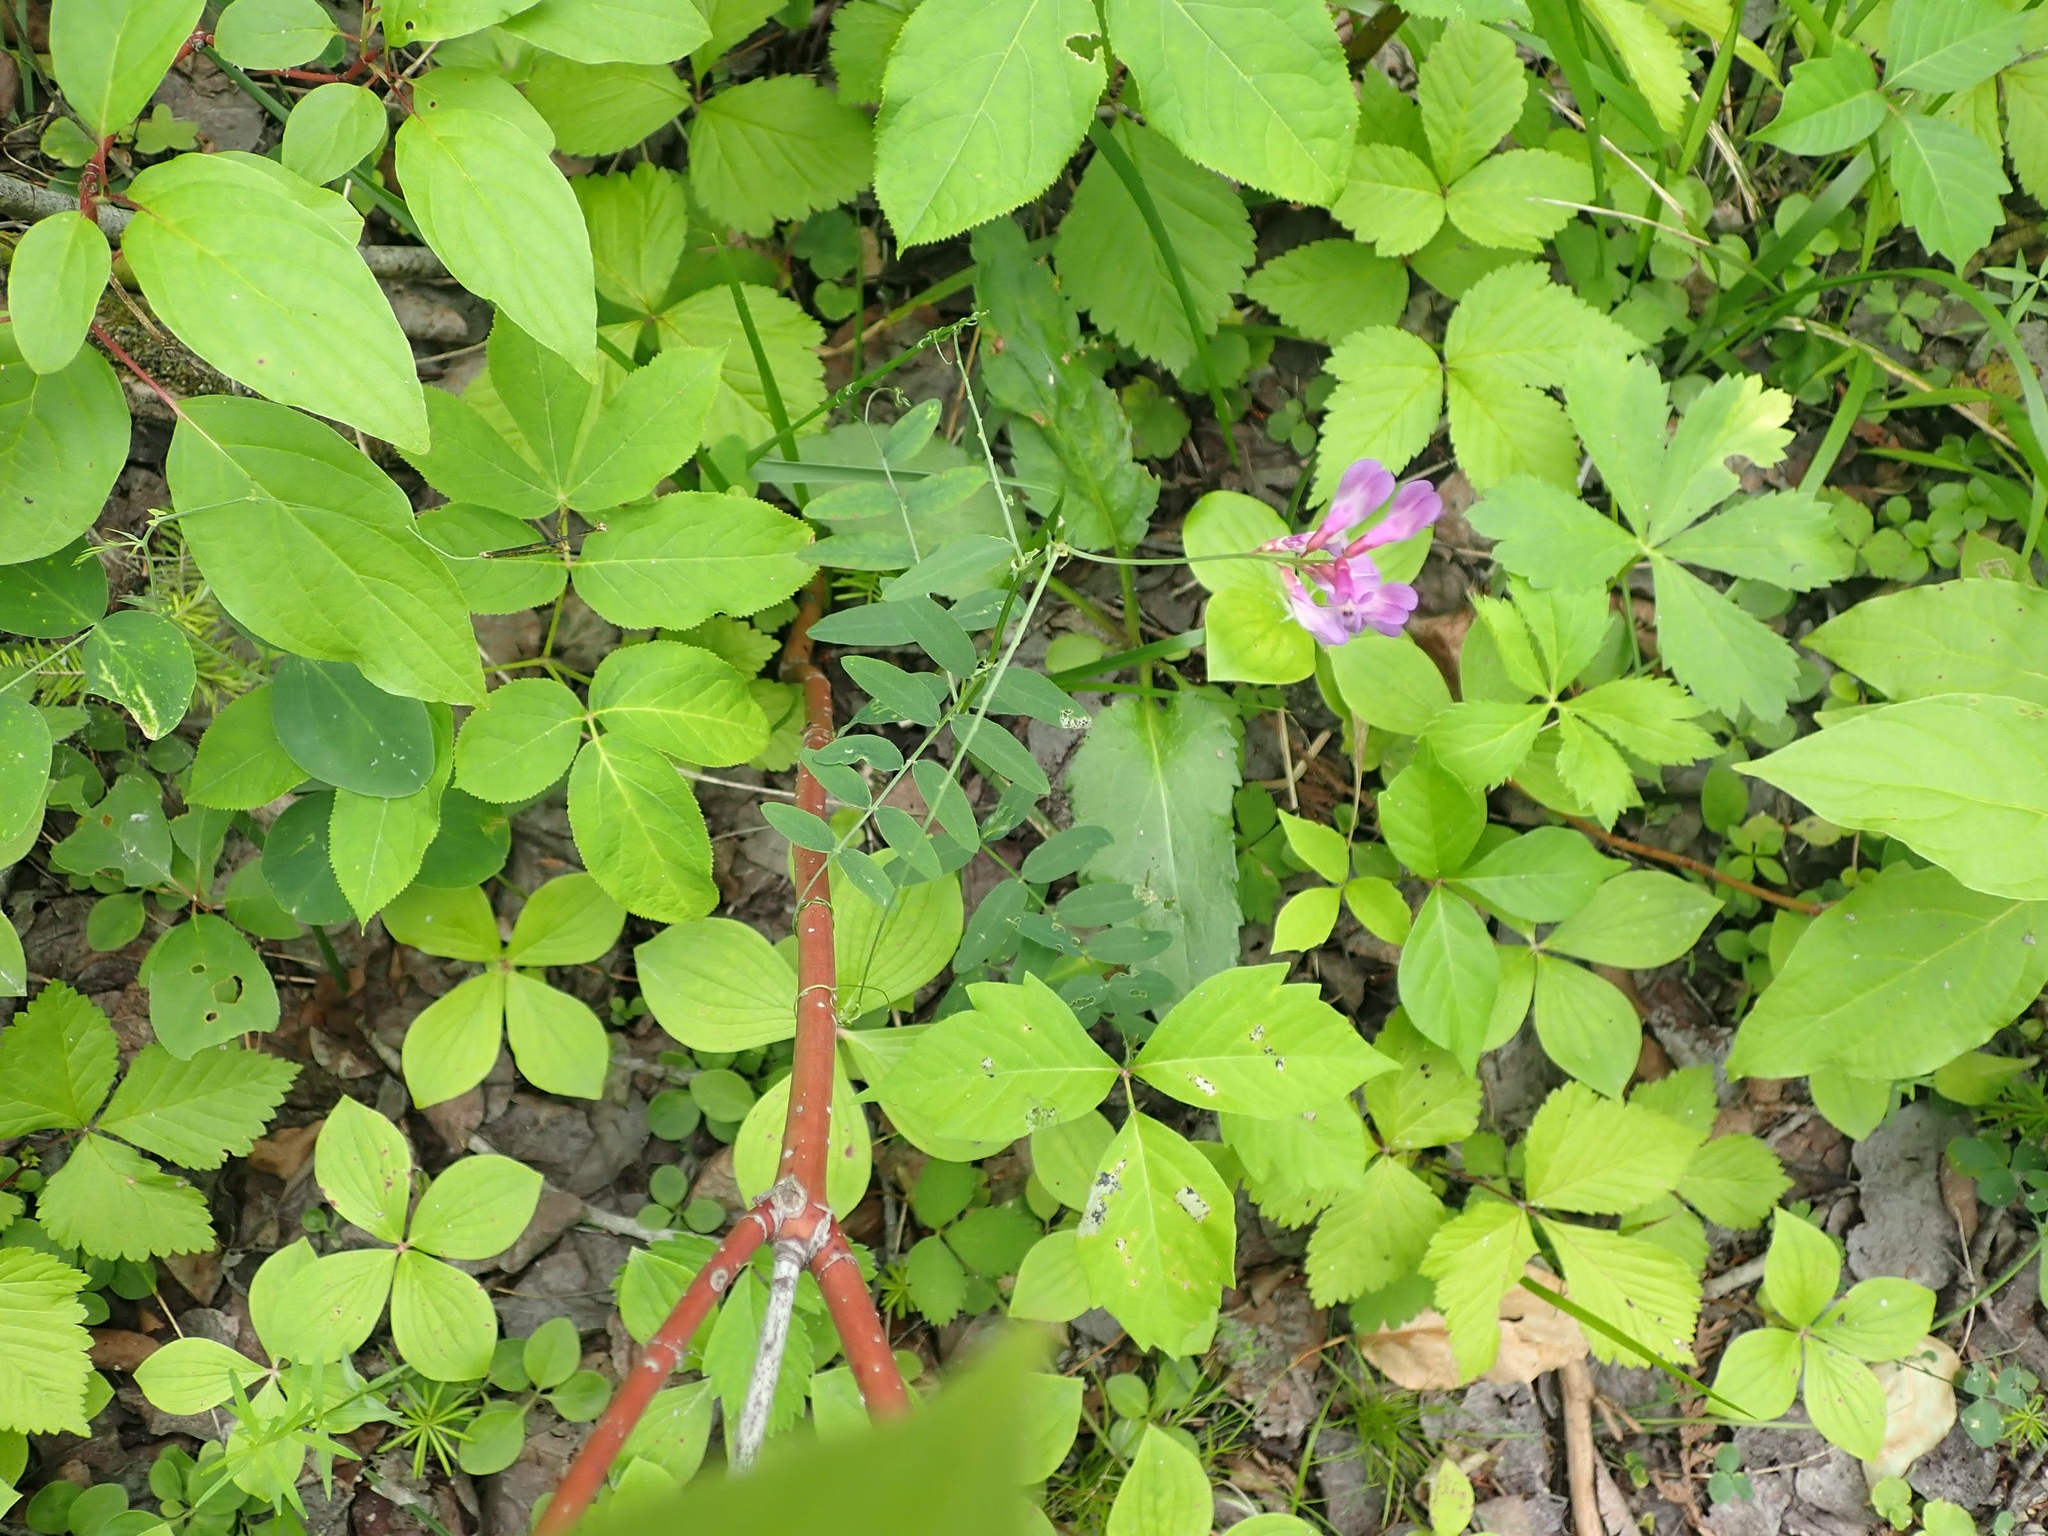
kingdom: Plantae
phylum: Tracheophyta
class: Magnoliopsida
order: Fabales
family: Fabaceae
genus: Vicia
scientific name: Vicia americana
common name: American vetch
